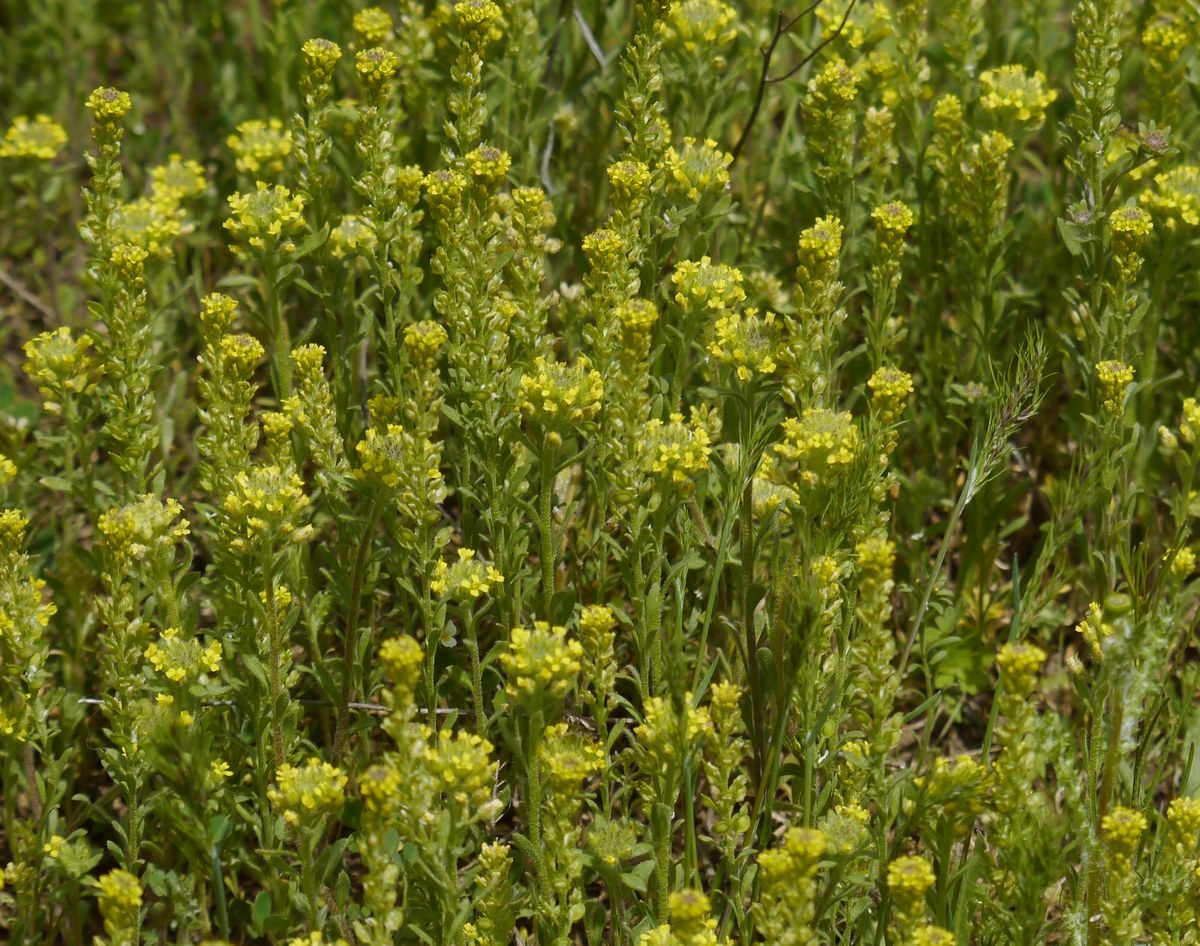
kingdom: Plantae
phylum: Tracheophyta
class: Magnoliopsida
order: Brassicales
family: Brassicaceae
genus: Alyssum
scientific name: Alyssum turkestanicum
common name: Desert alyssum
